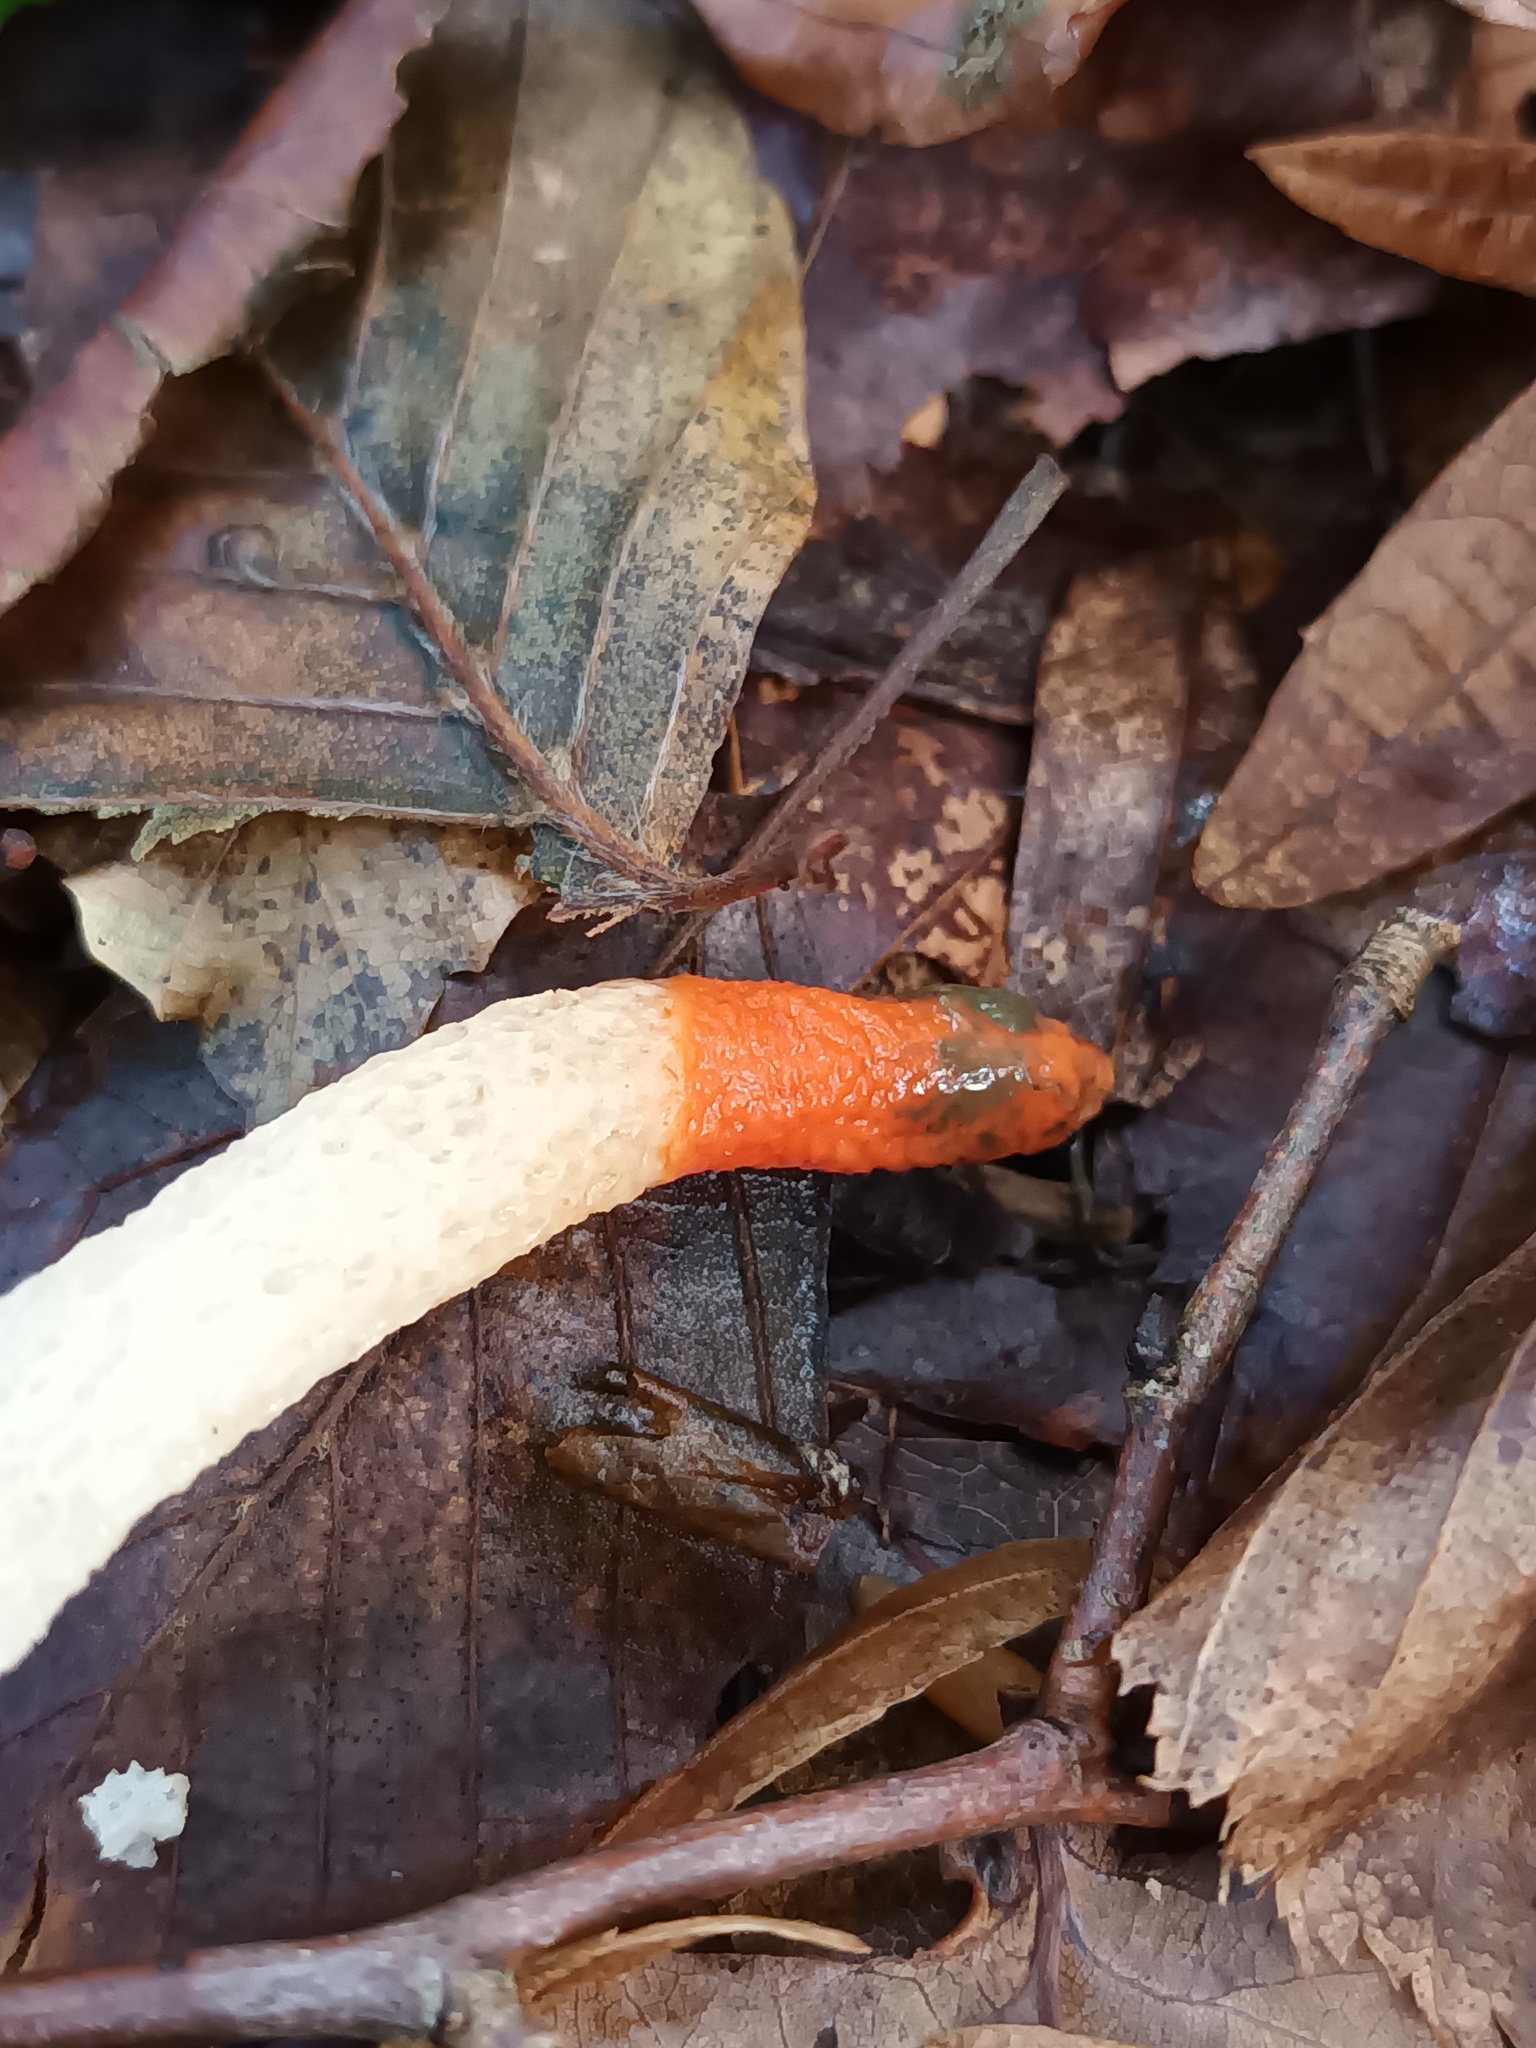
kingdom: Fungi
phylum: Basidiomycota
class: Agaricomycetes
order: Phallales
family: Phallaceae
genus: Mutinus
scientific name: Mutinus caninus
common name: Dog stinkhorn
